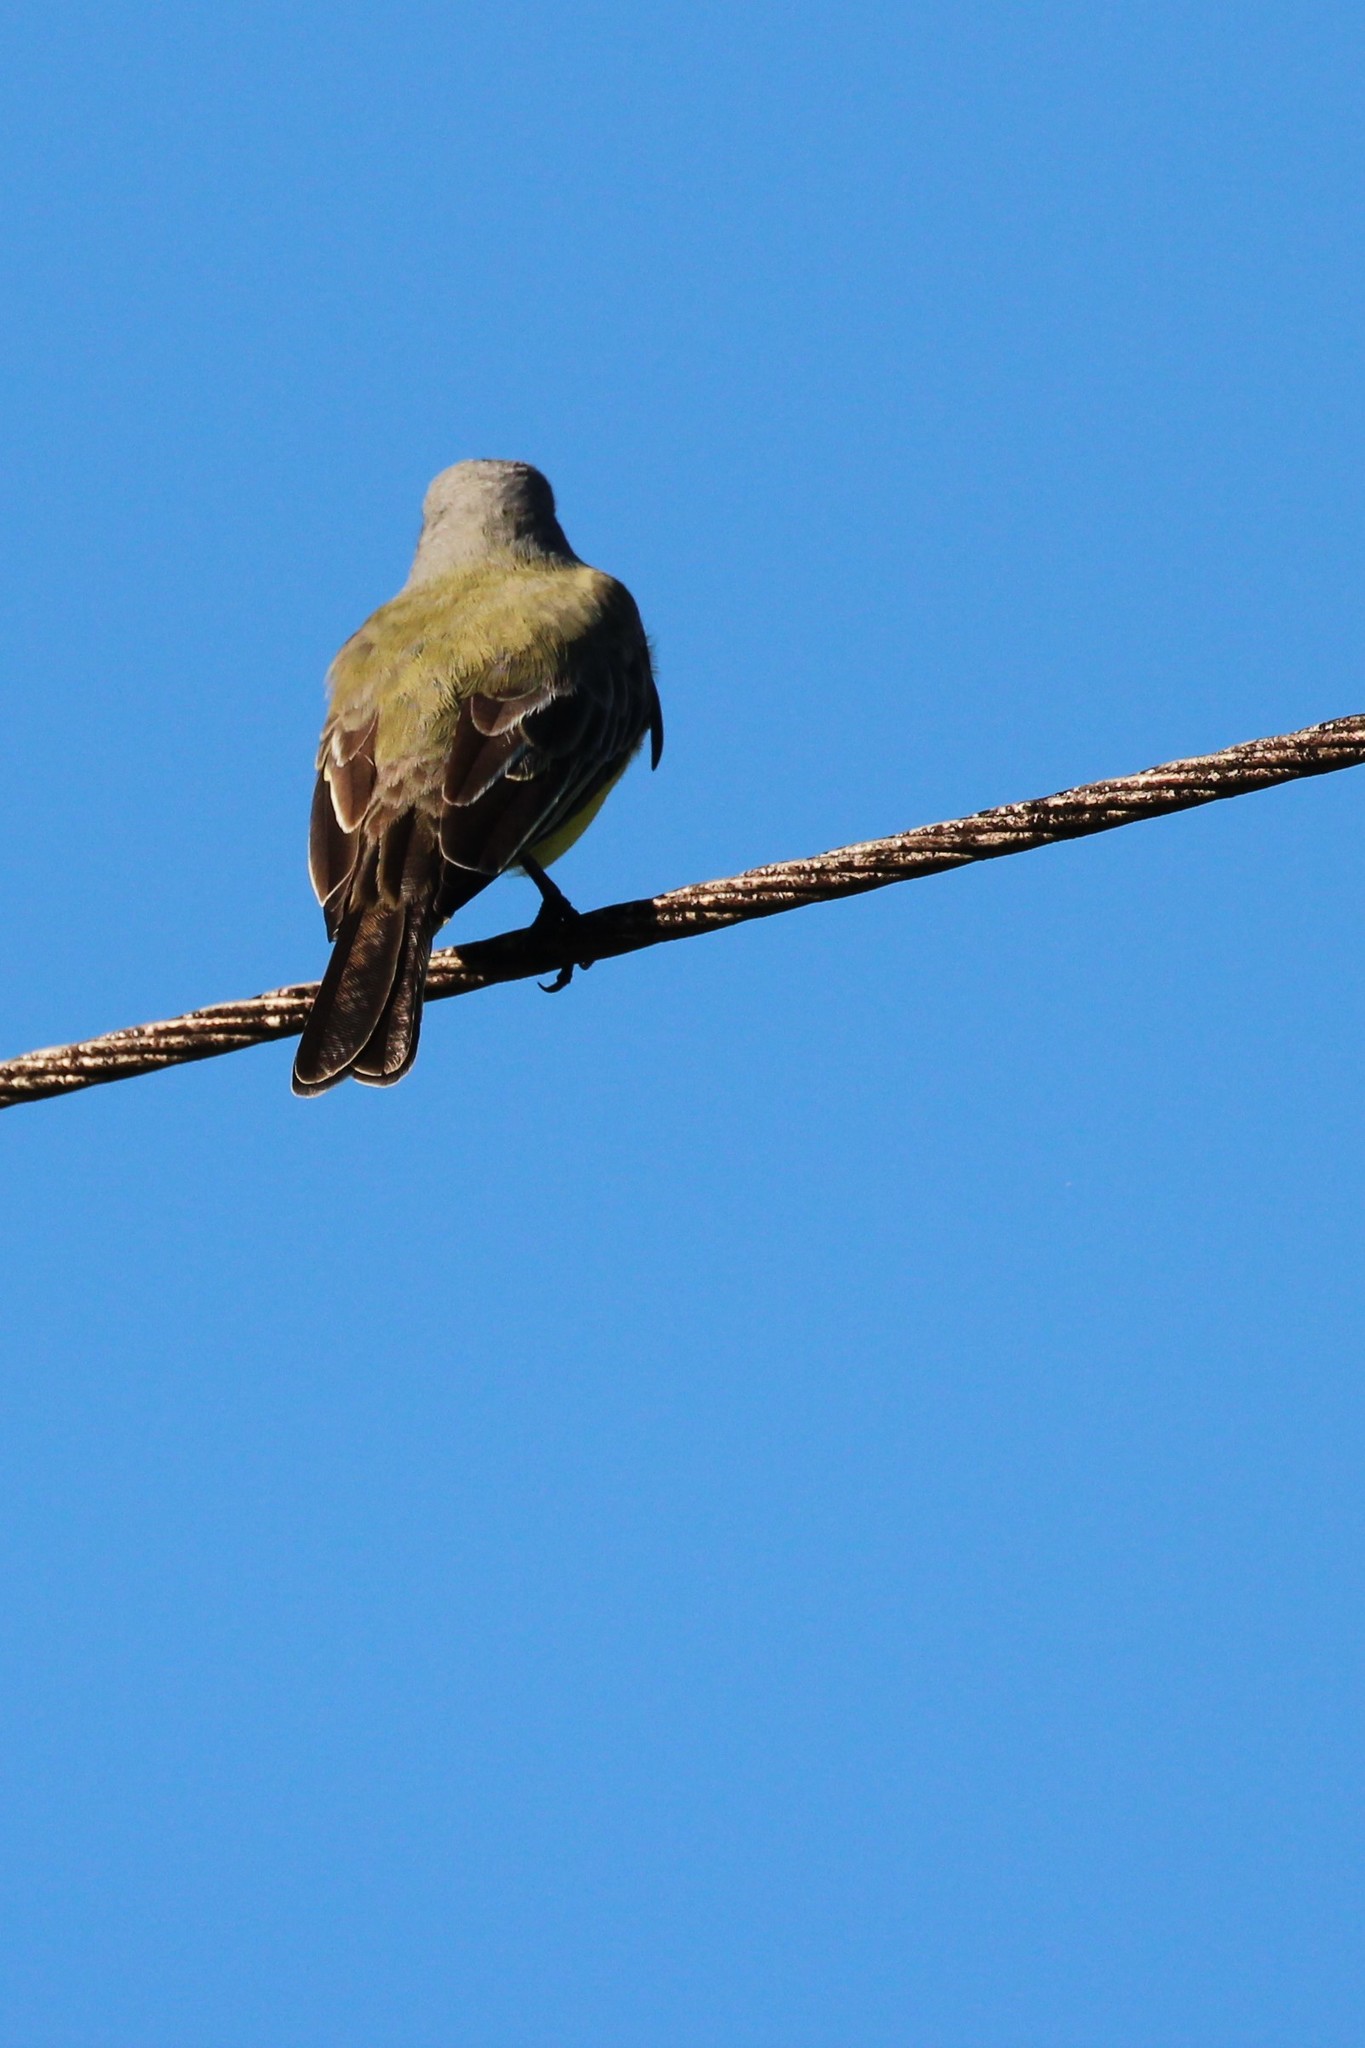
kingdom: Animalia
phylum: Chordata
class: Aves
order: Passeriformes
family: Tyrannidae
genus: Tyrannus
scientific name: Tyrannus melancholicus
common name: Tropical kingbird
